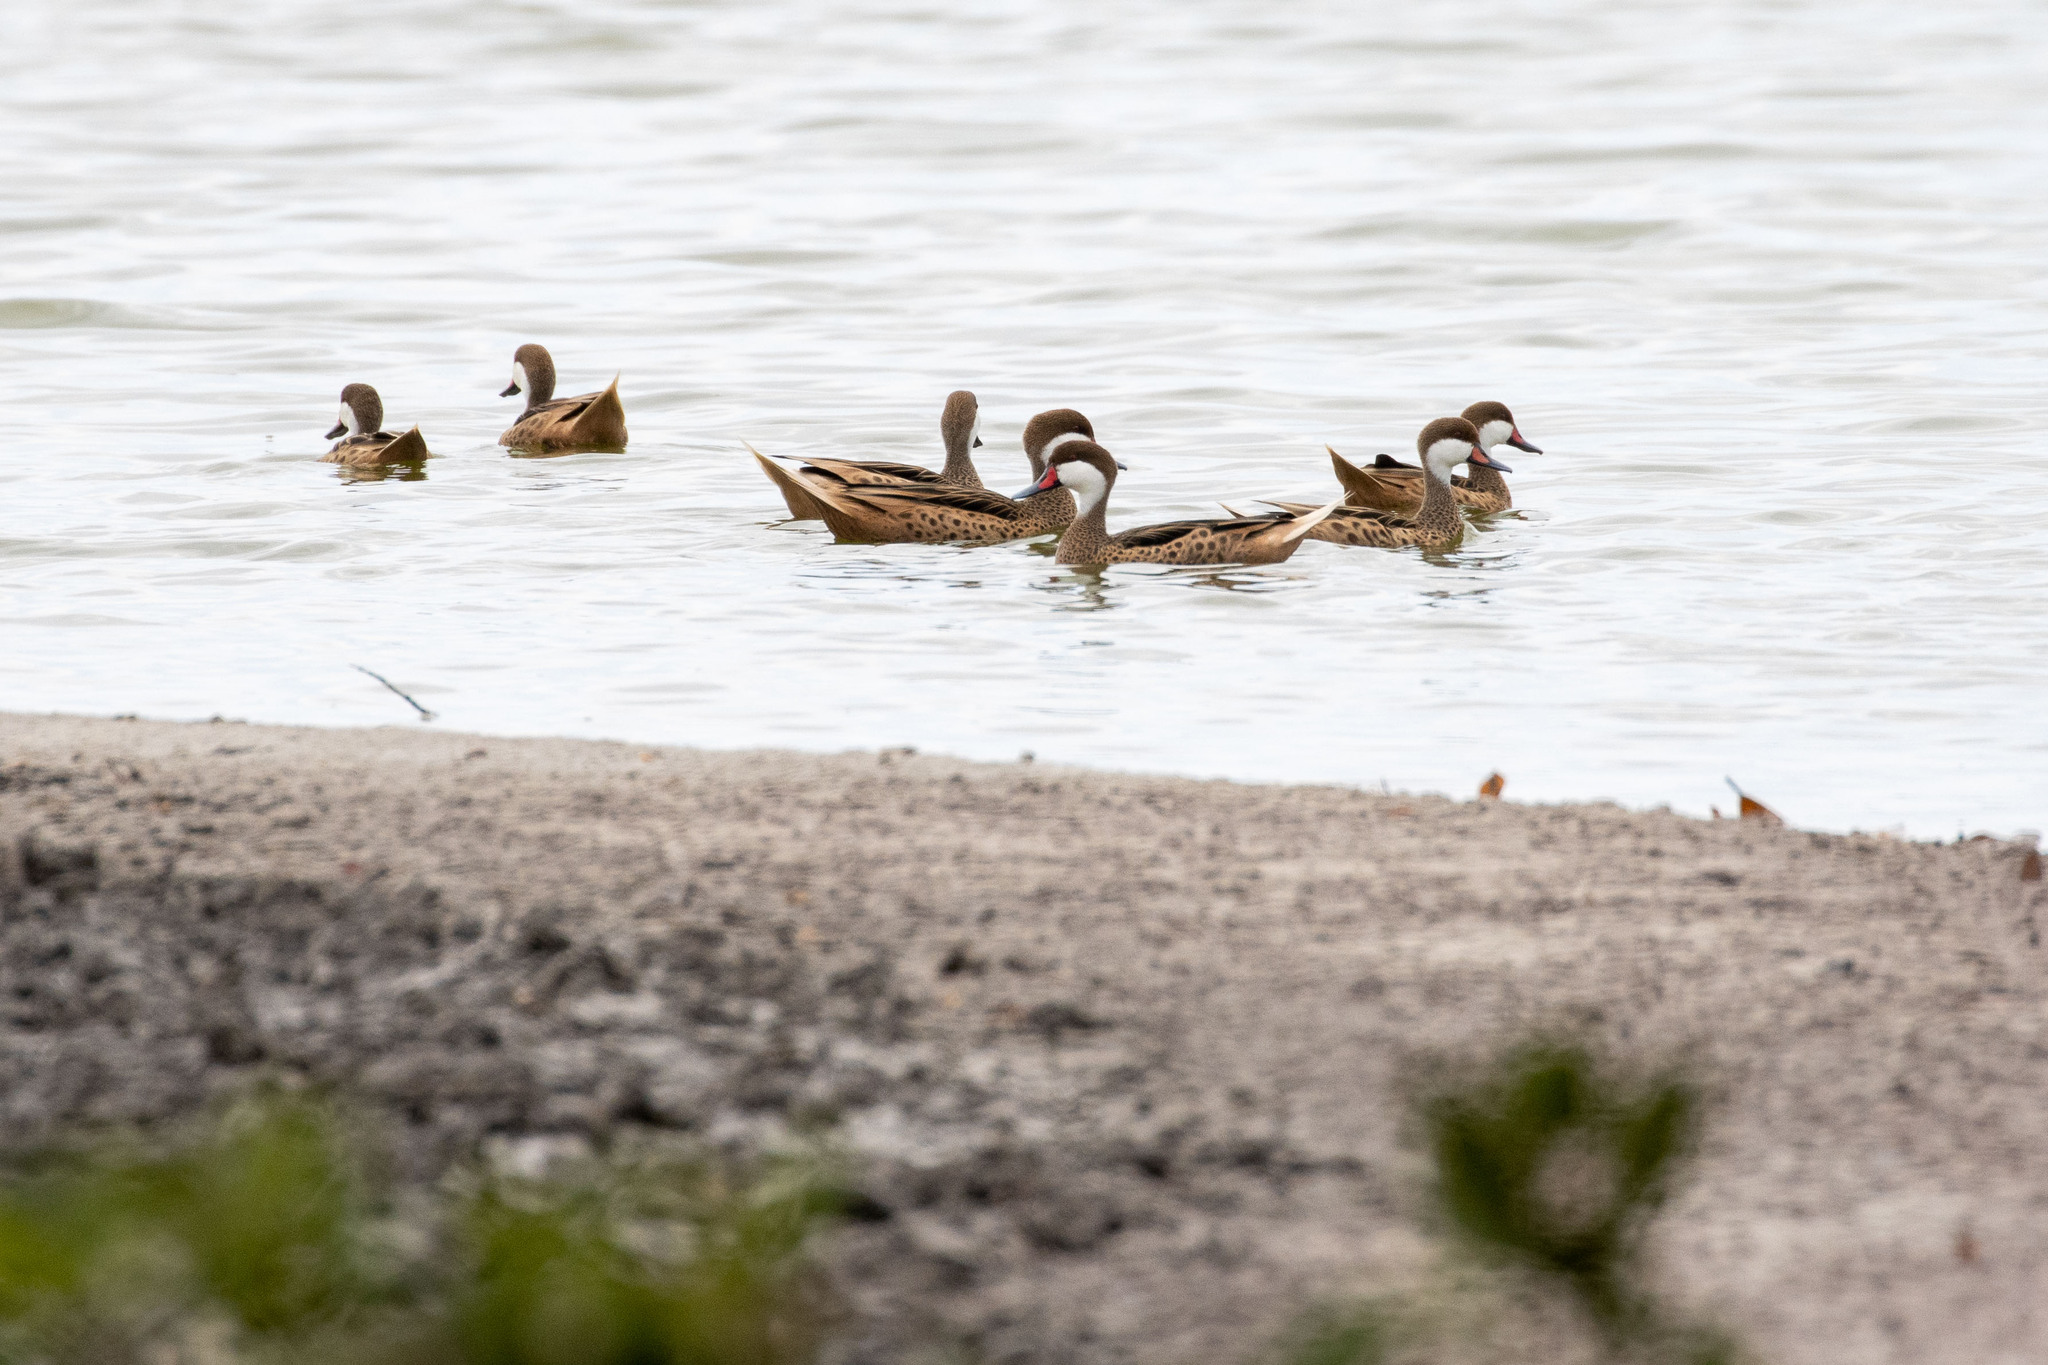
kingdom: Animalia
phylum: Chordata
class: Aves
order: Anseriformes
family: Anatidae
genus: Anas
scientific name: Anas bahamensis
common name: White-cheeked pintail
